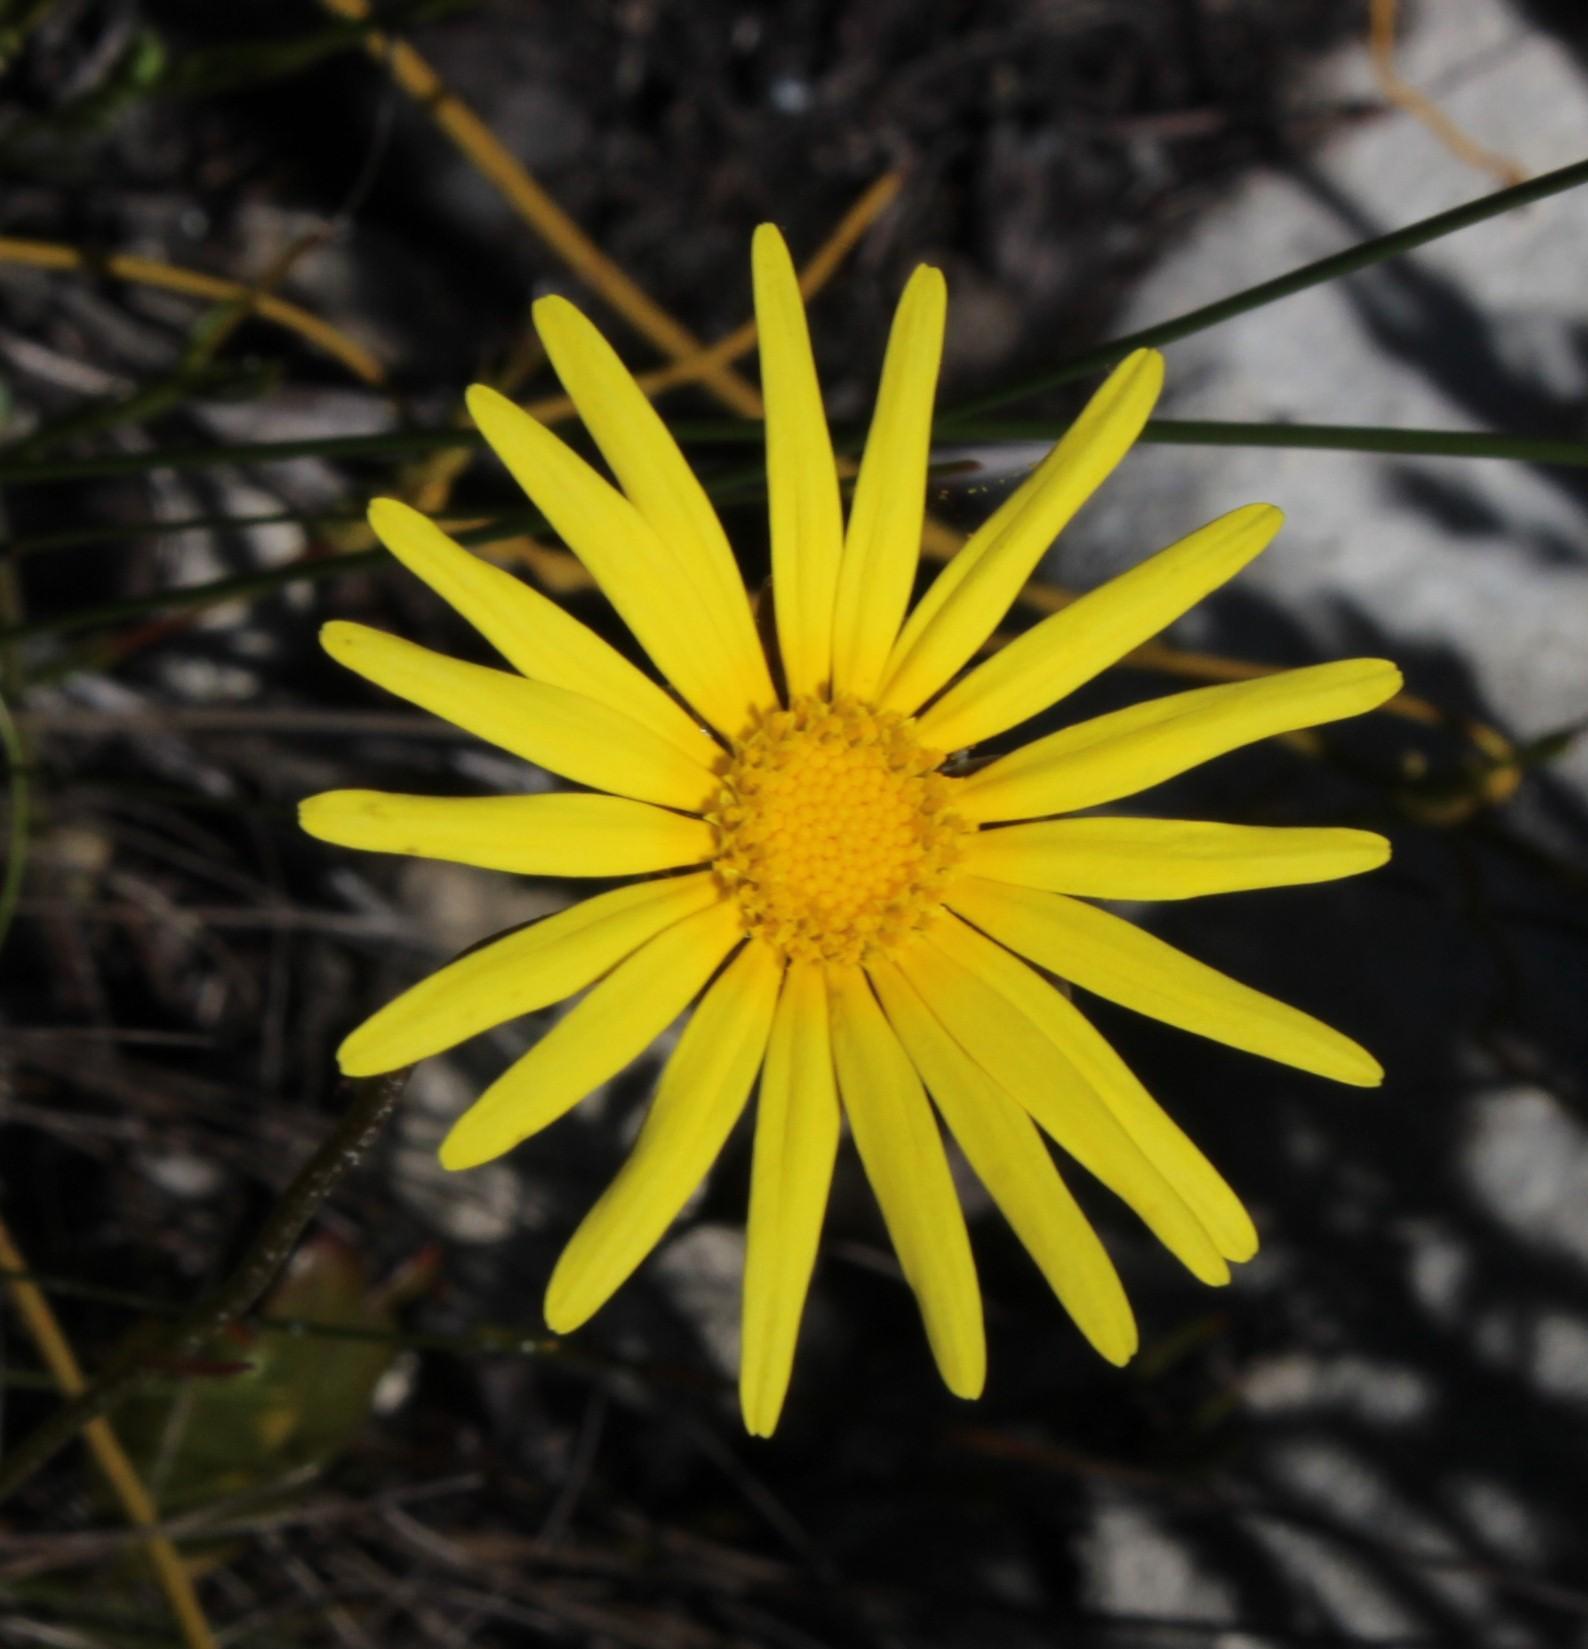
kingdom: Plantae
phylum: Tracheophyta
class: Magnoliopsida
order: Asterales
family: Asteraceae
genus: Ursinia
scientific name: Ursinia tenuifolia
